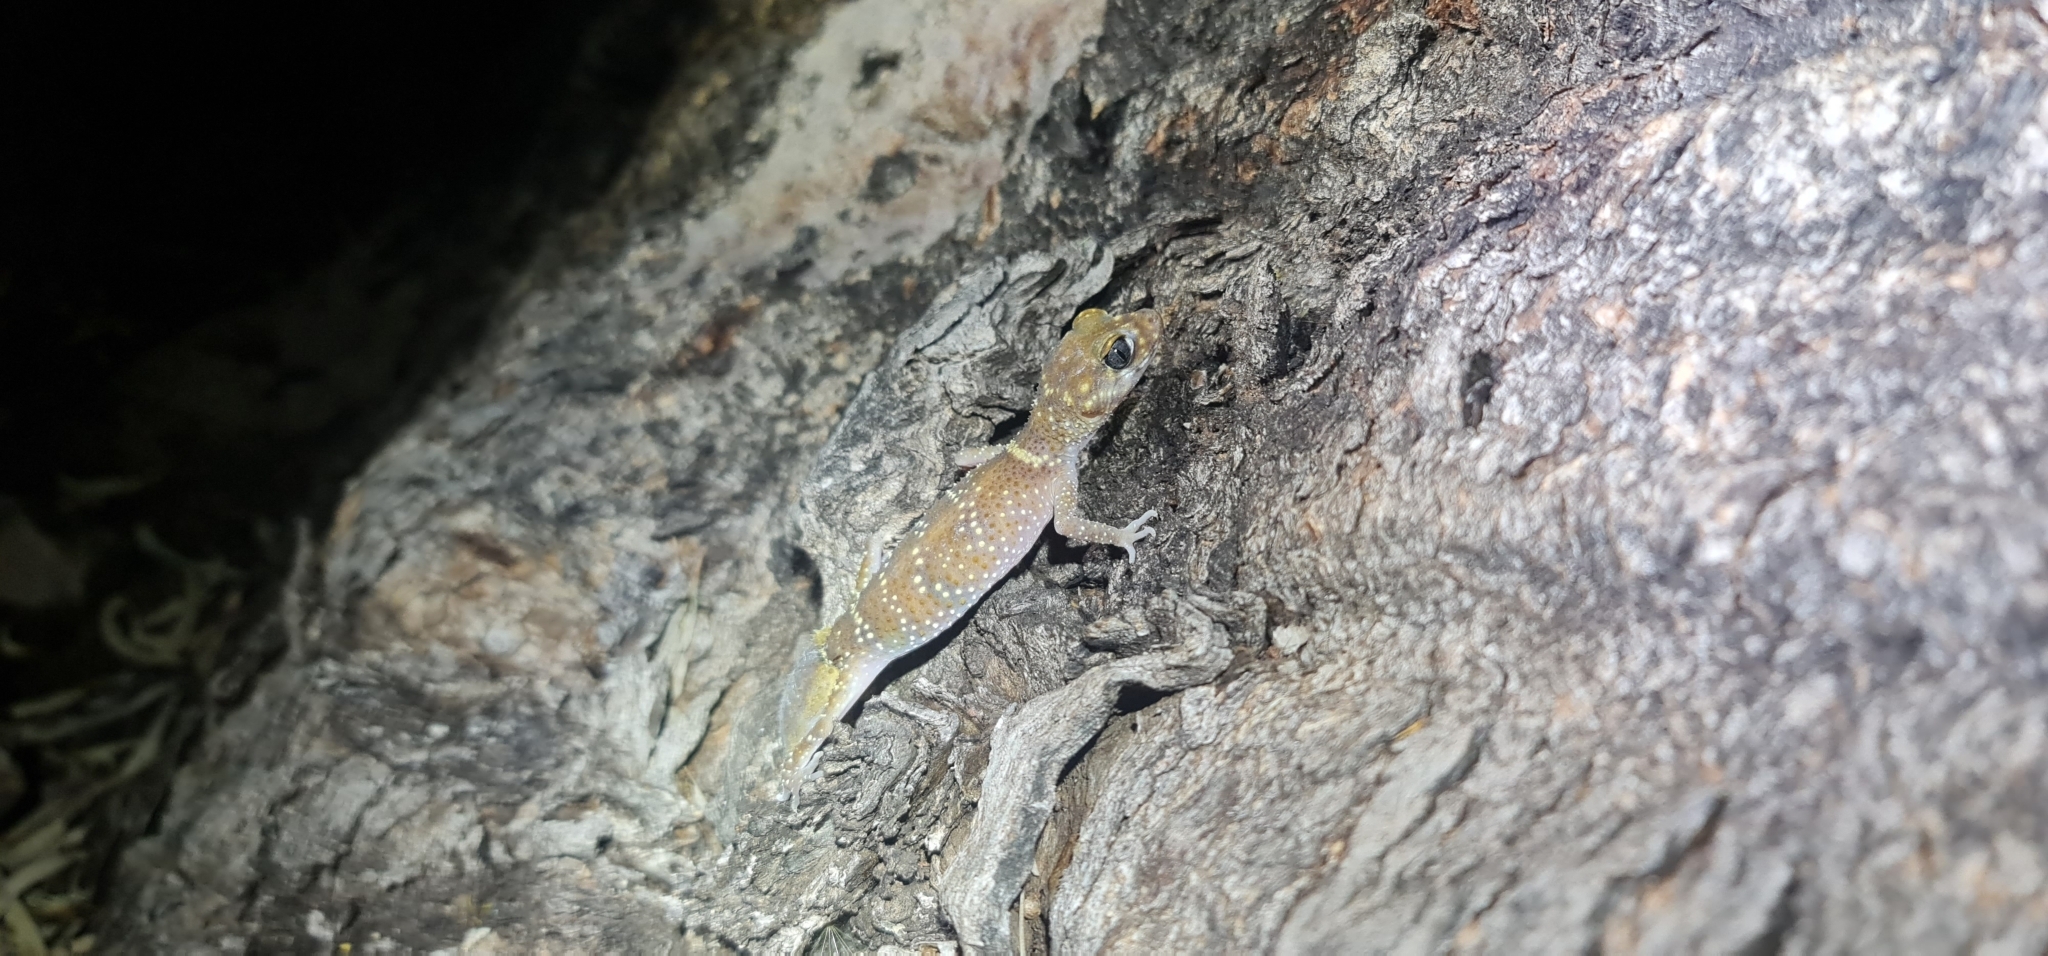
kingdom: Animalia
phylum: Chordata
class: Squamata
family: Carphodactylidae
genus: Underwoodisaurus
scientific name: Underwoodisaurus milii
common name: Barking gecko
